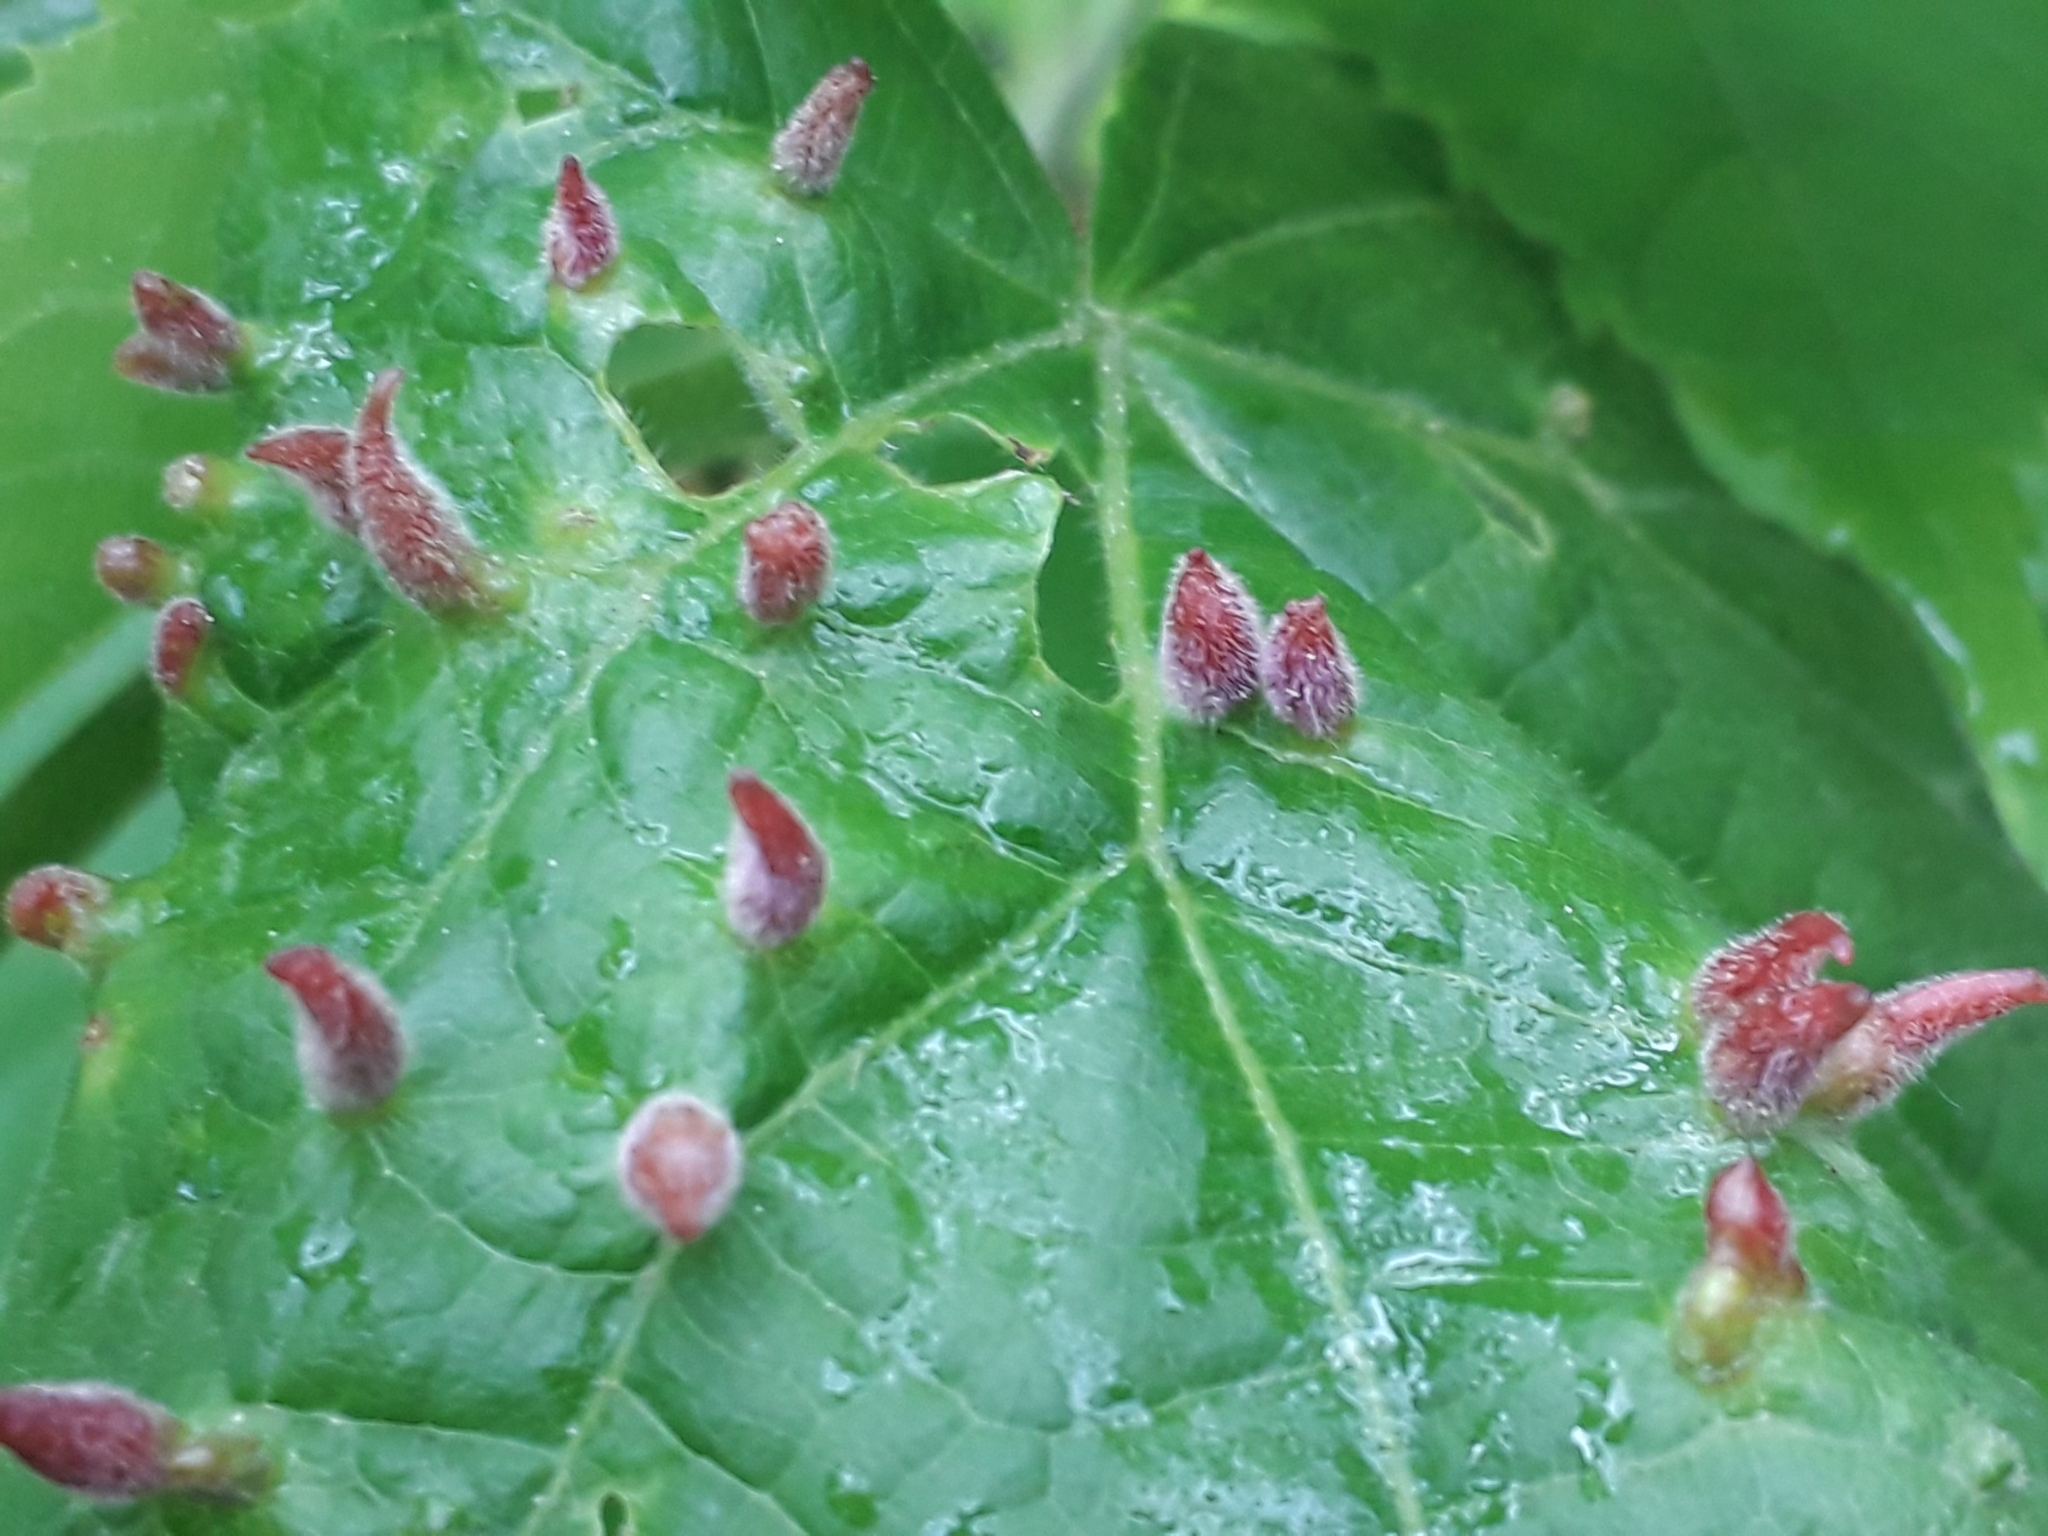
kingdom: Animalia
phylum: Arthropoda
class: Arachnida
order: Trombidiformes
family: Eriophyidae
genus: Eriophyes
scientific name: Eriophyes tiliae
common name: Red nail gall mite
